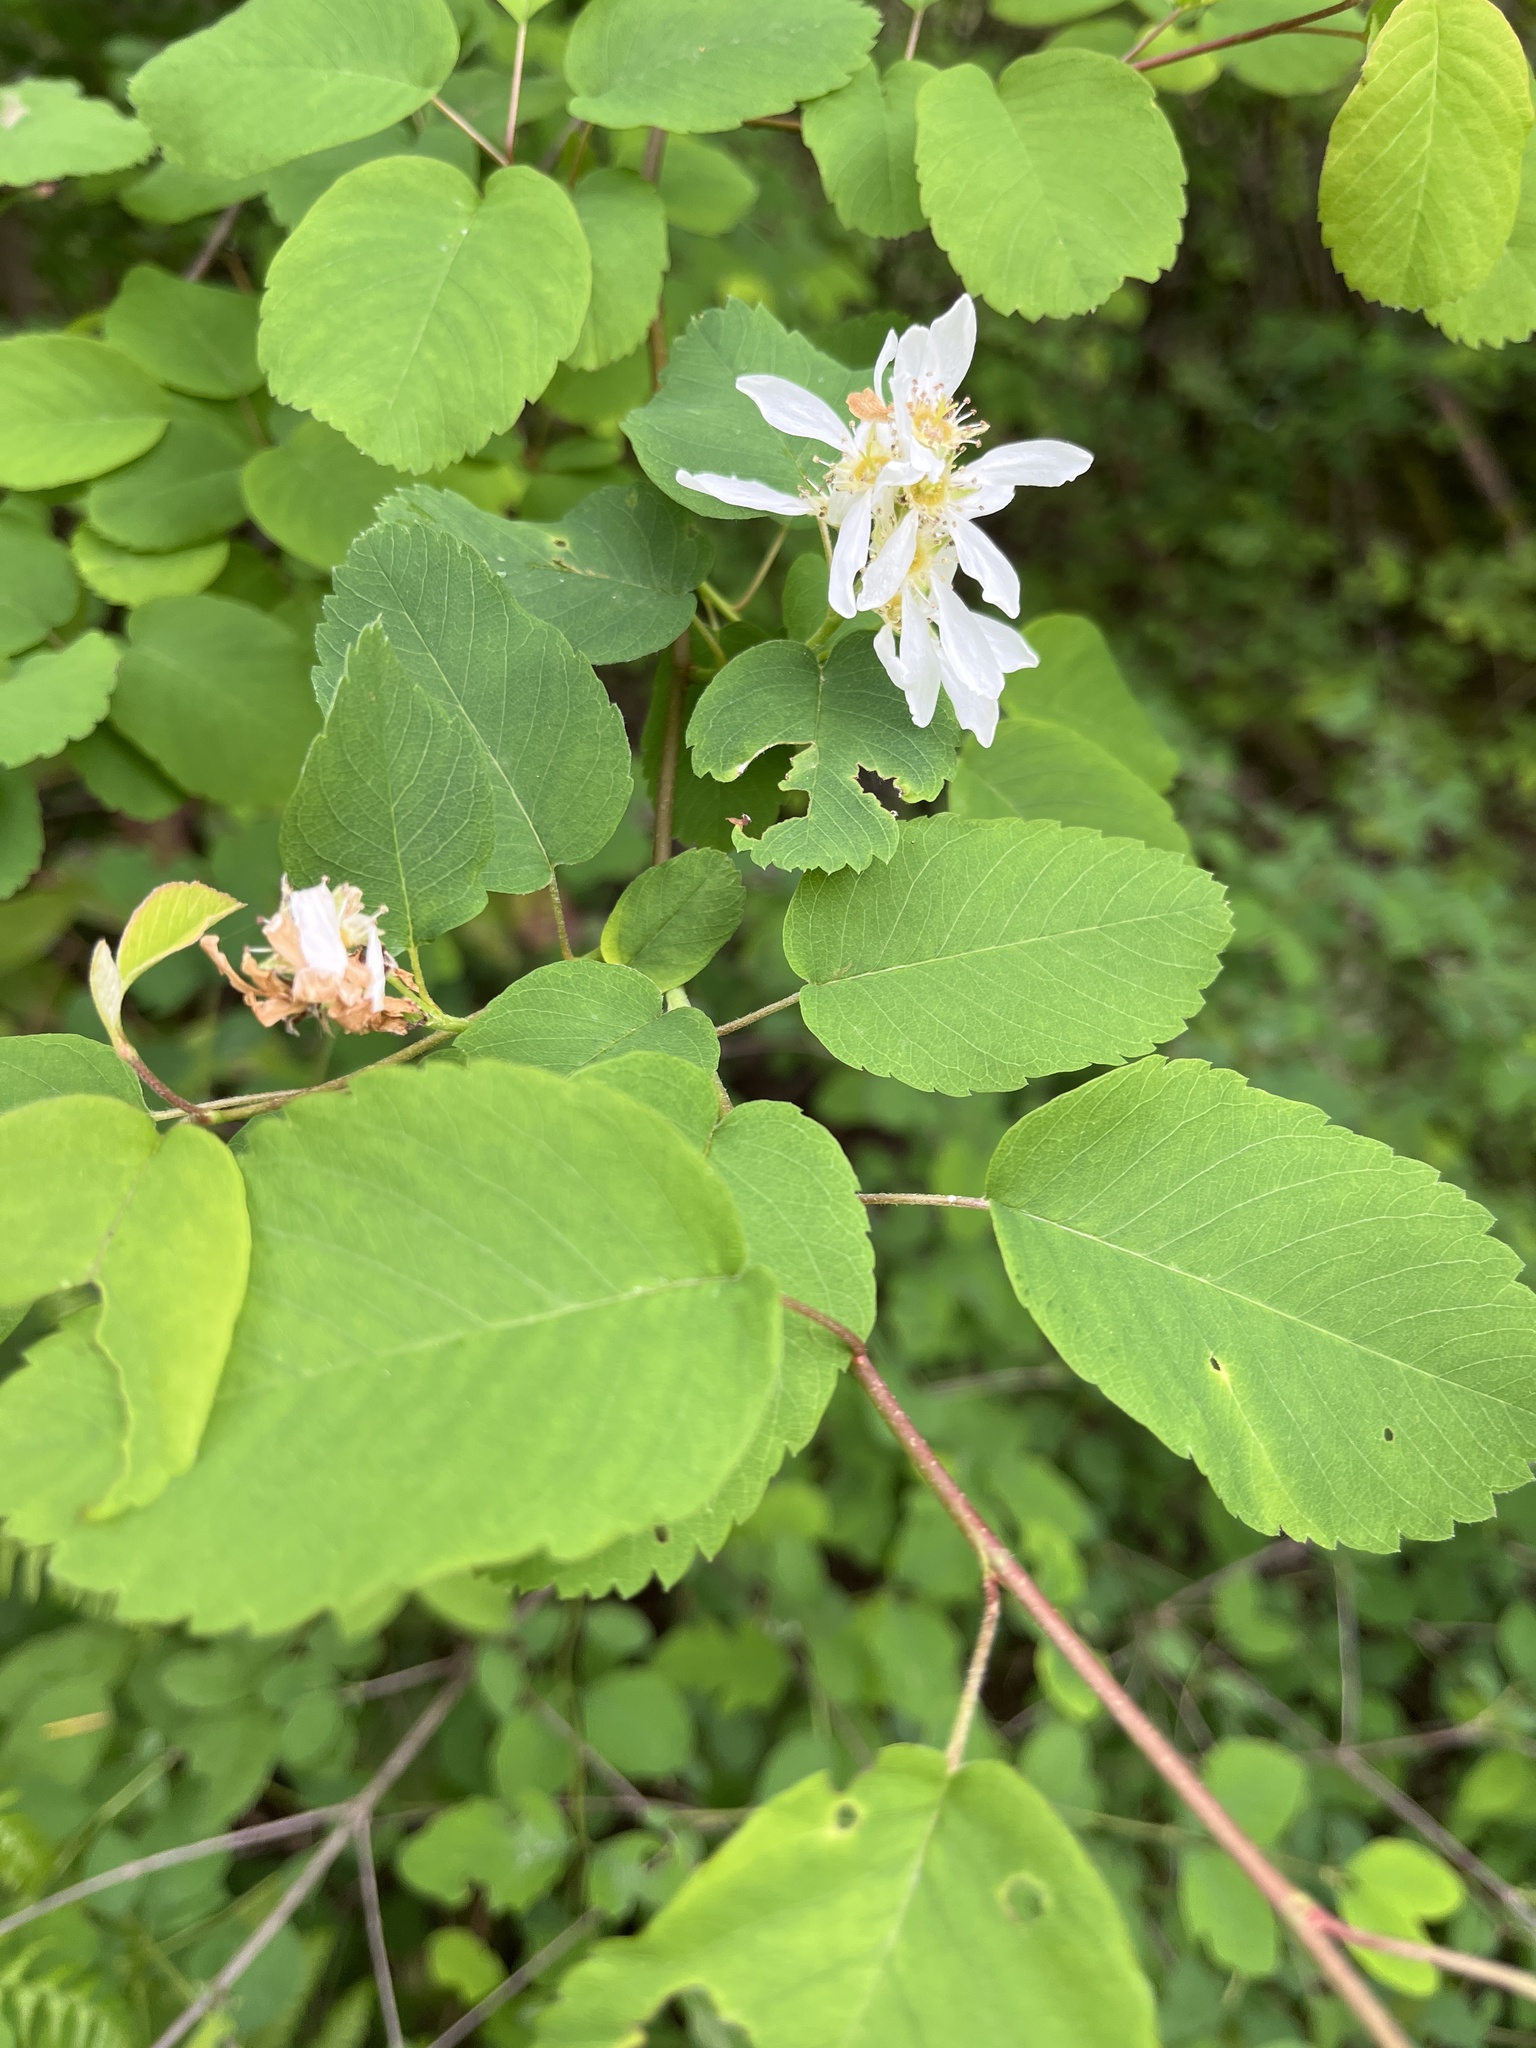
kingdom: Plantae
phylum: Tracheophyta
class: Magnoliopsida
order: Rosales
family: Rosaceae
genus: Amelanchier
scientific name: Amelanchier alnifolia
